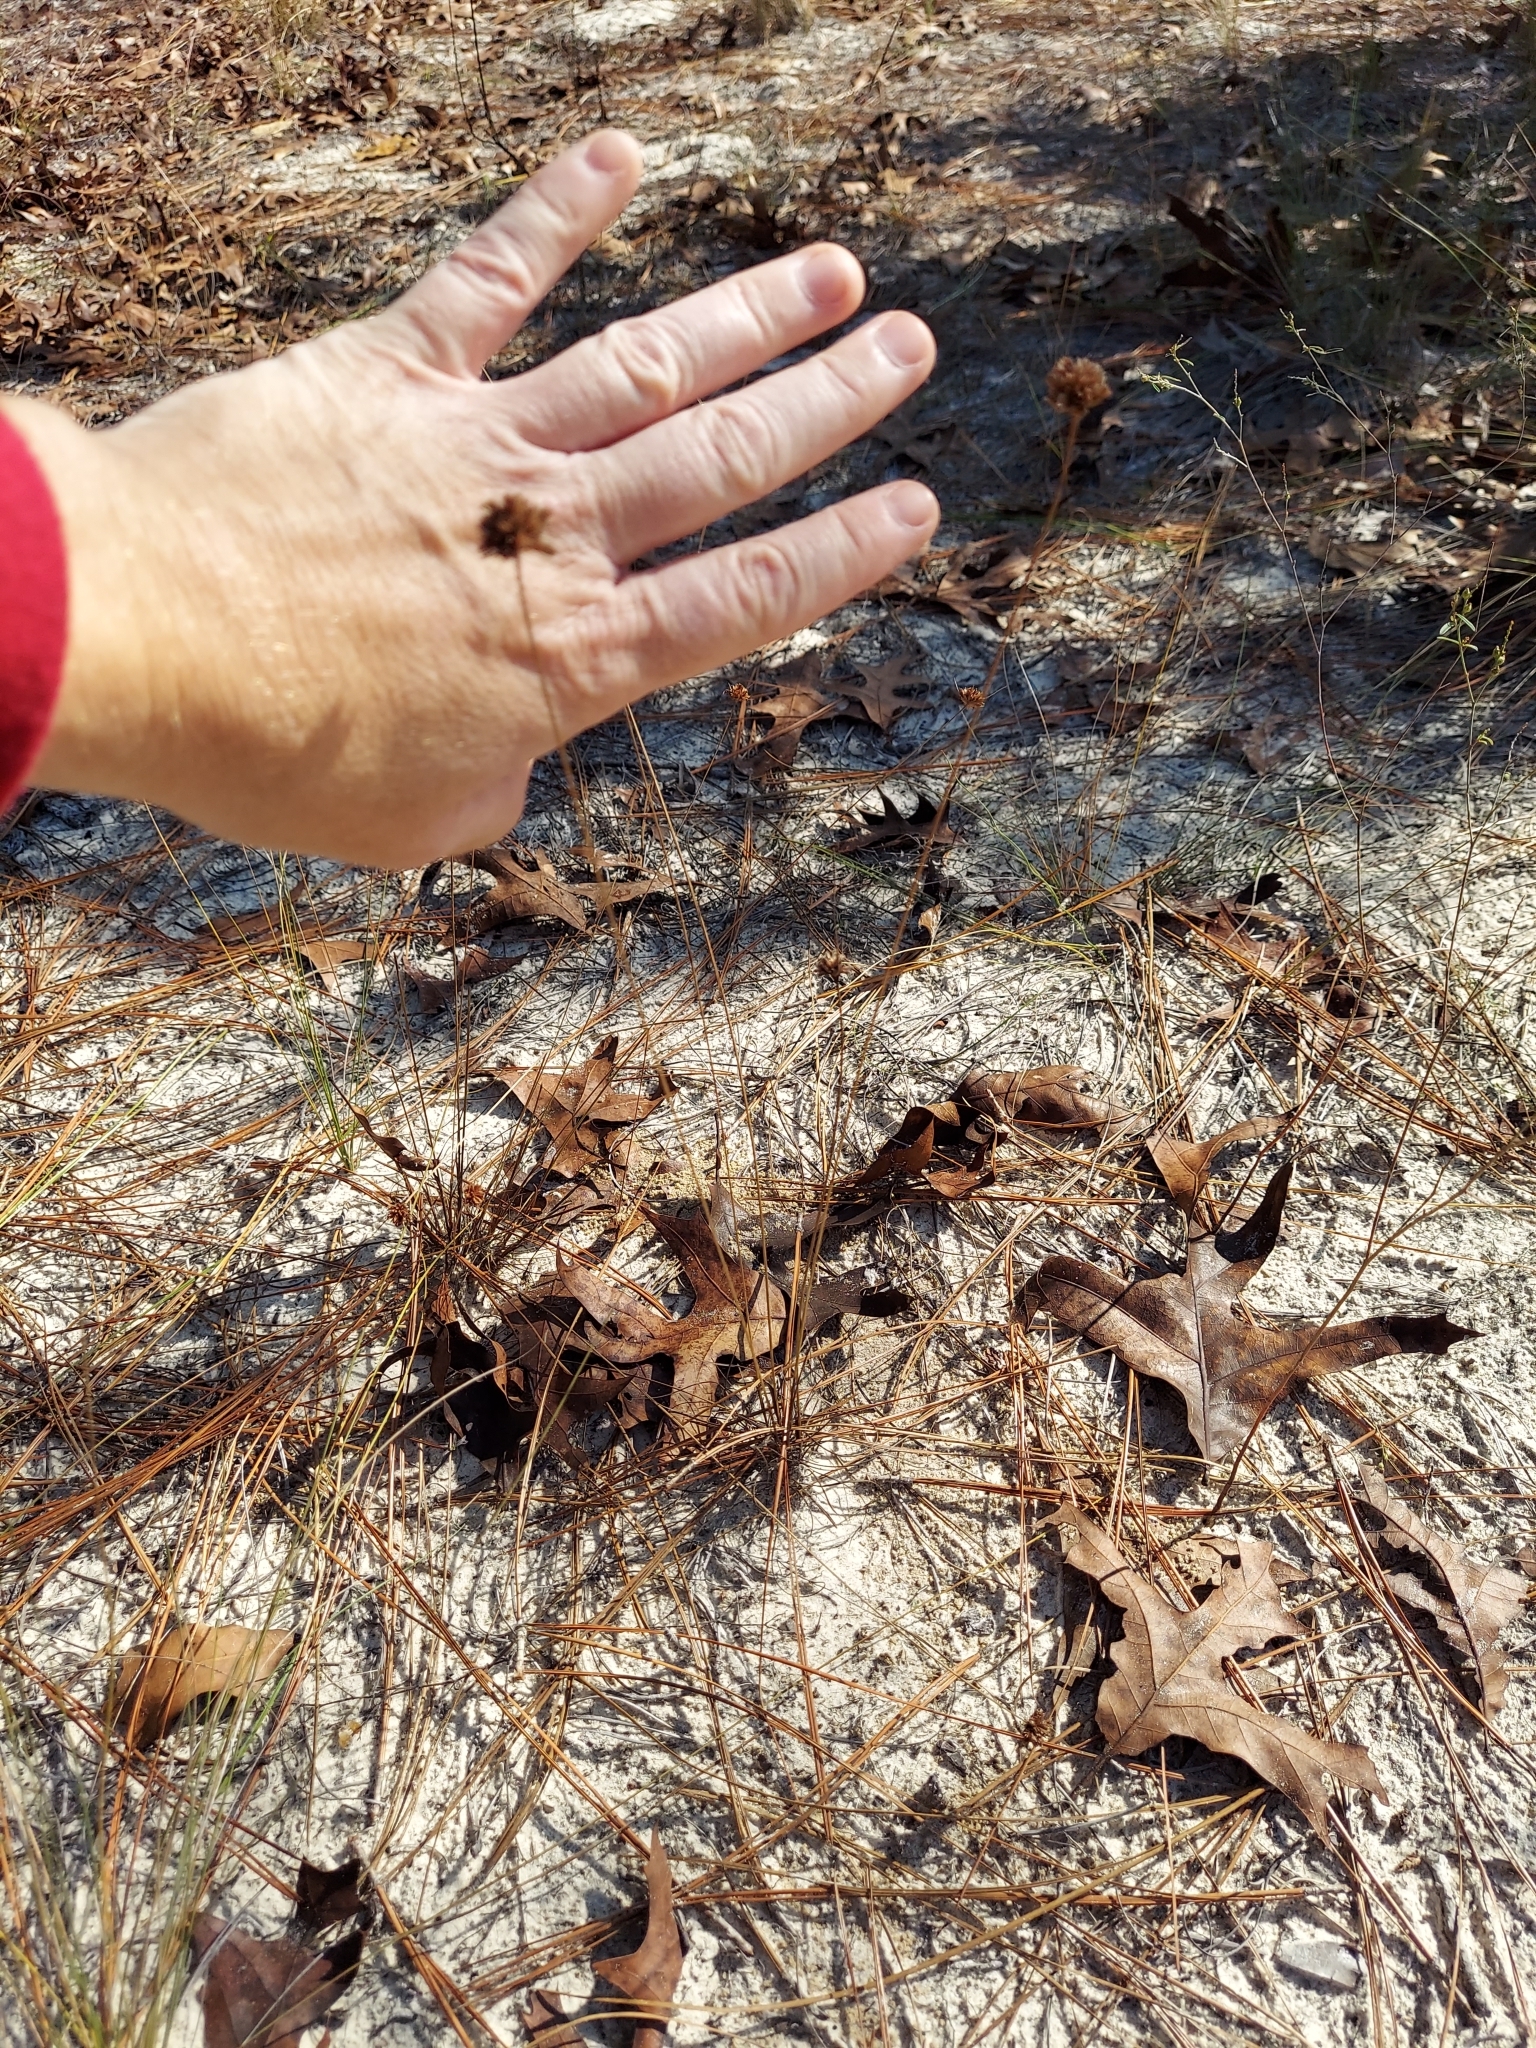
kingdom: Plantae
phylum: Tracheophyta
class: Liliopsida
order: Poales
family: Cyperaceae
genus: Bulbostylis
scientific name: Bulbostylis warei
